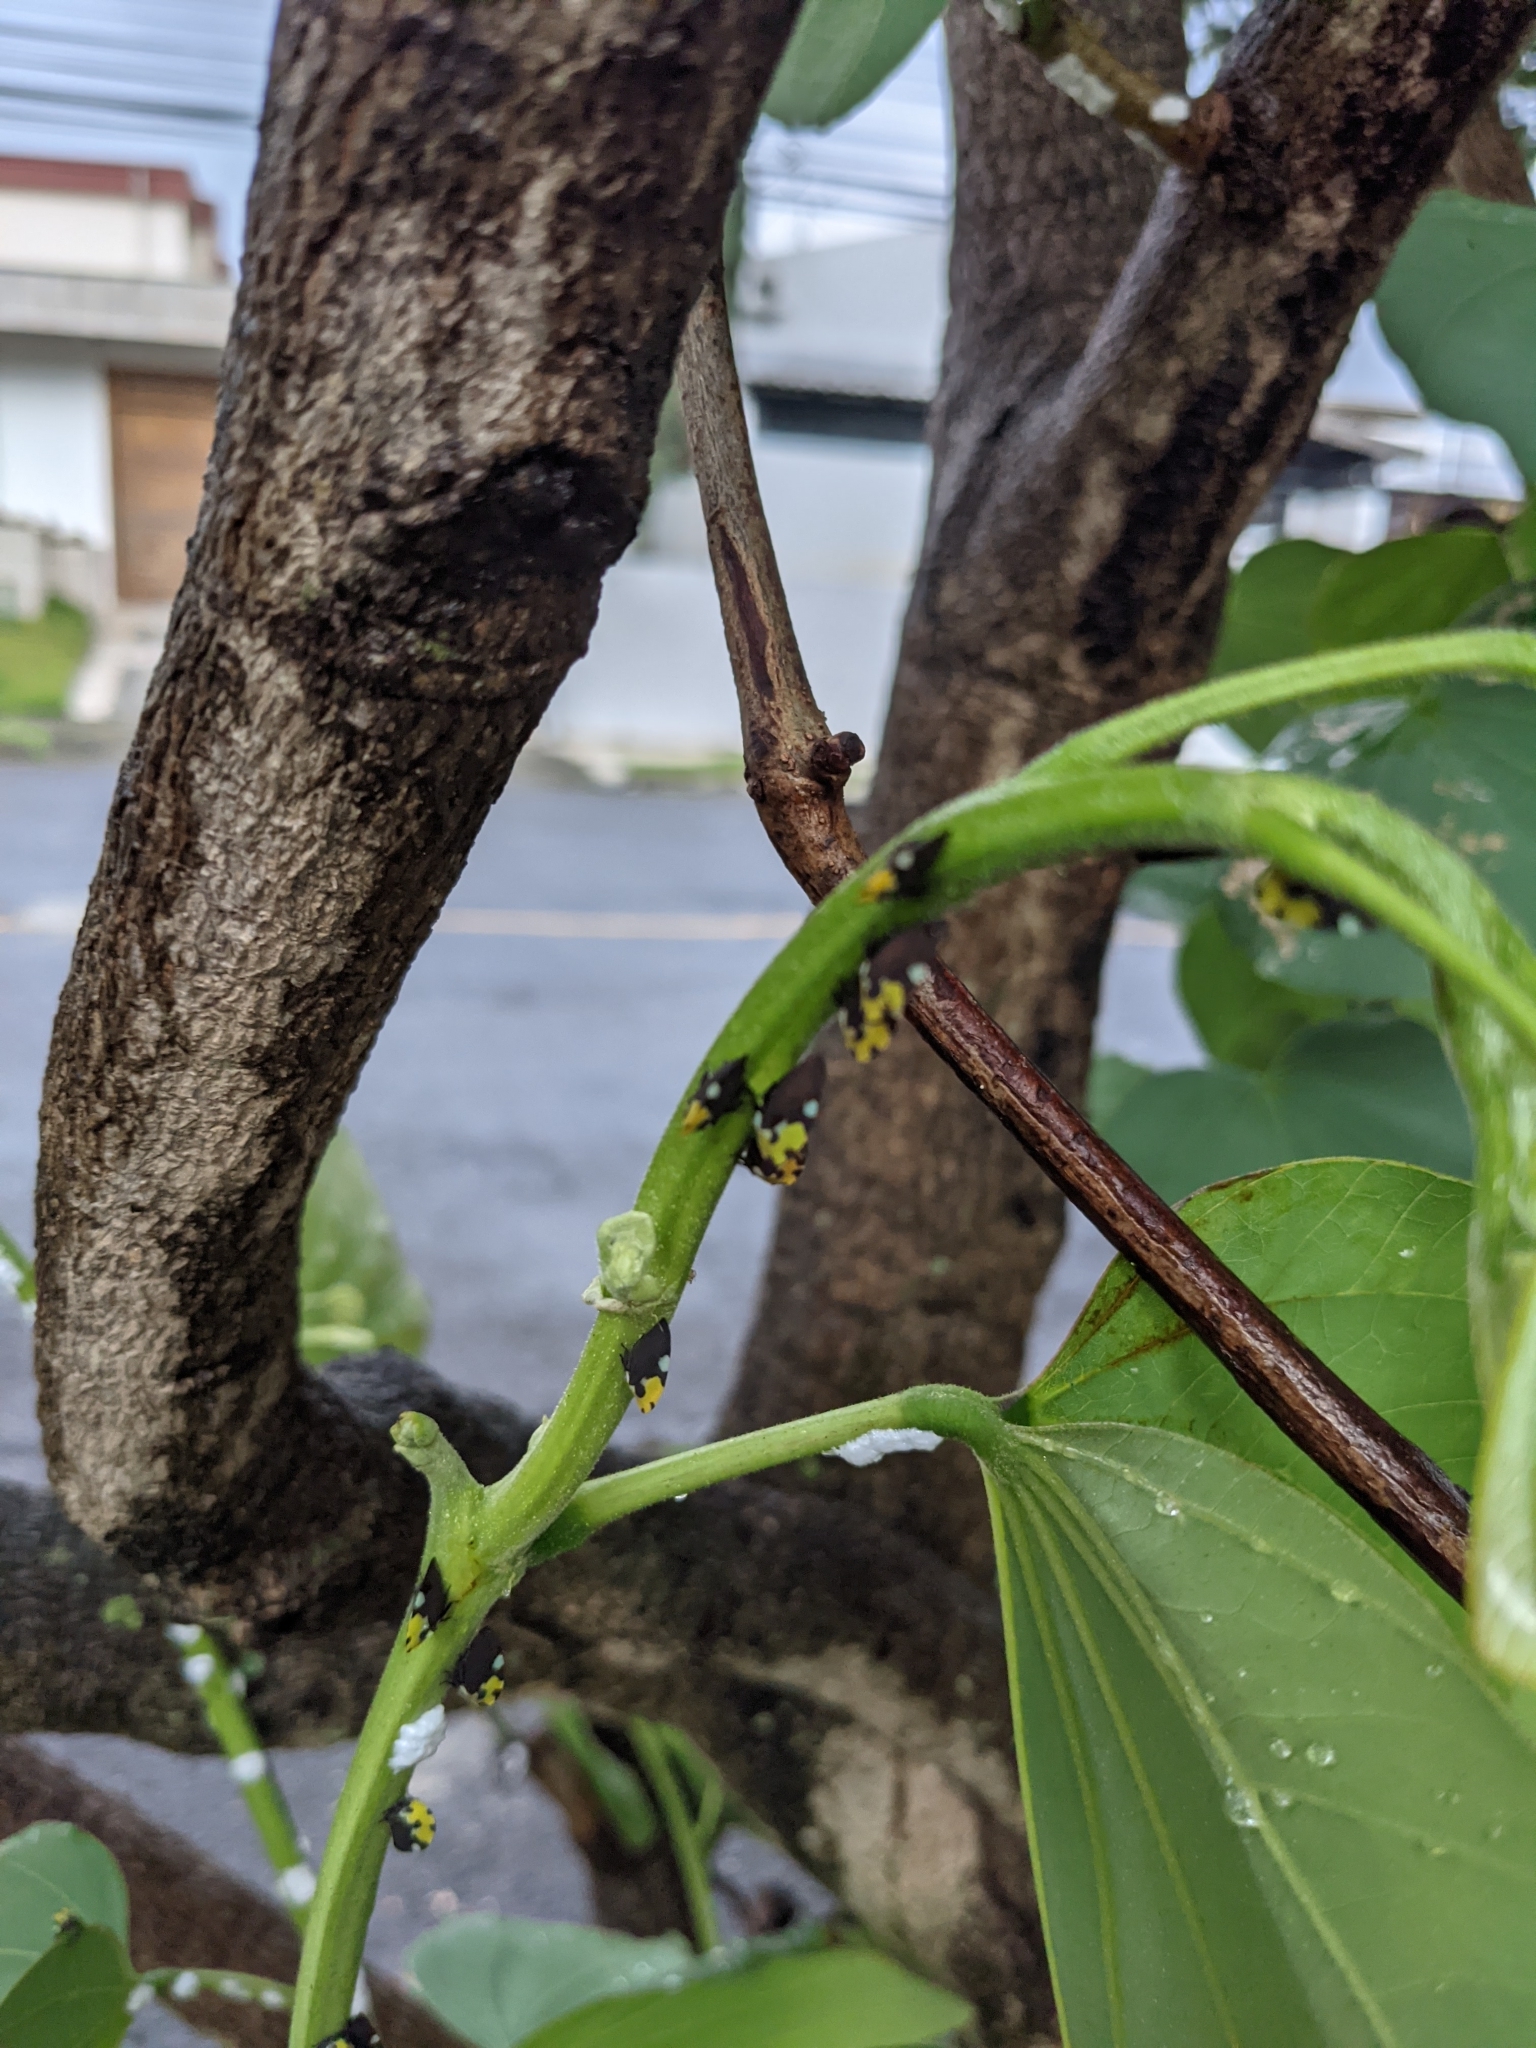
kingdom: Animalia
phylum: Arthropoda
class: Insecta
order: Hemiptera
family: Membracidae
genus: Membracis
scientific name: Membracis mexicana
